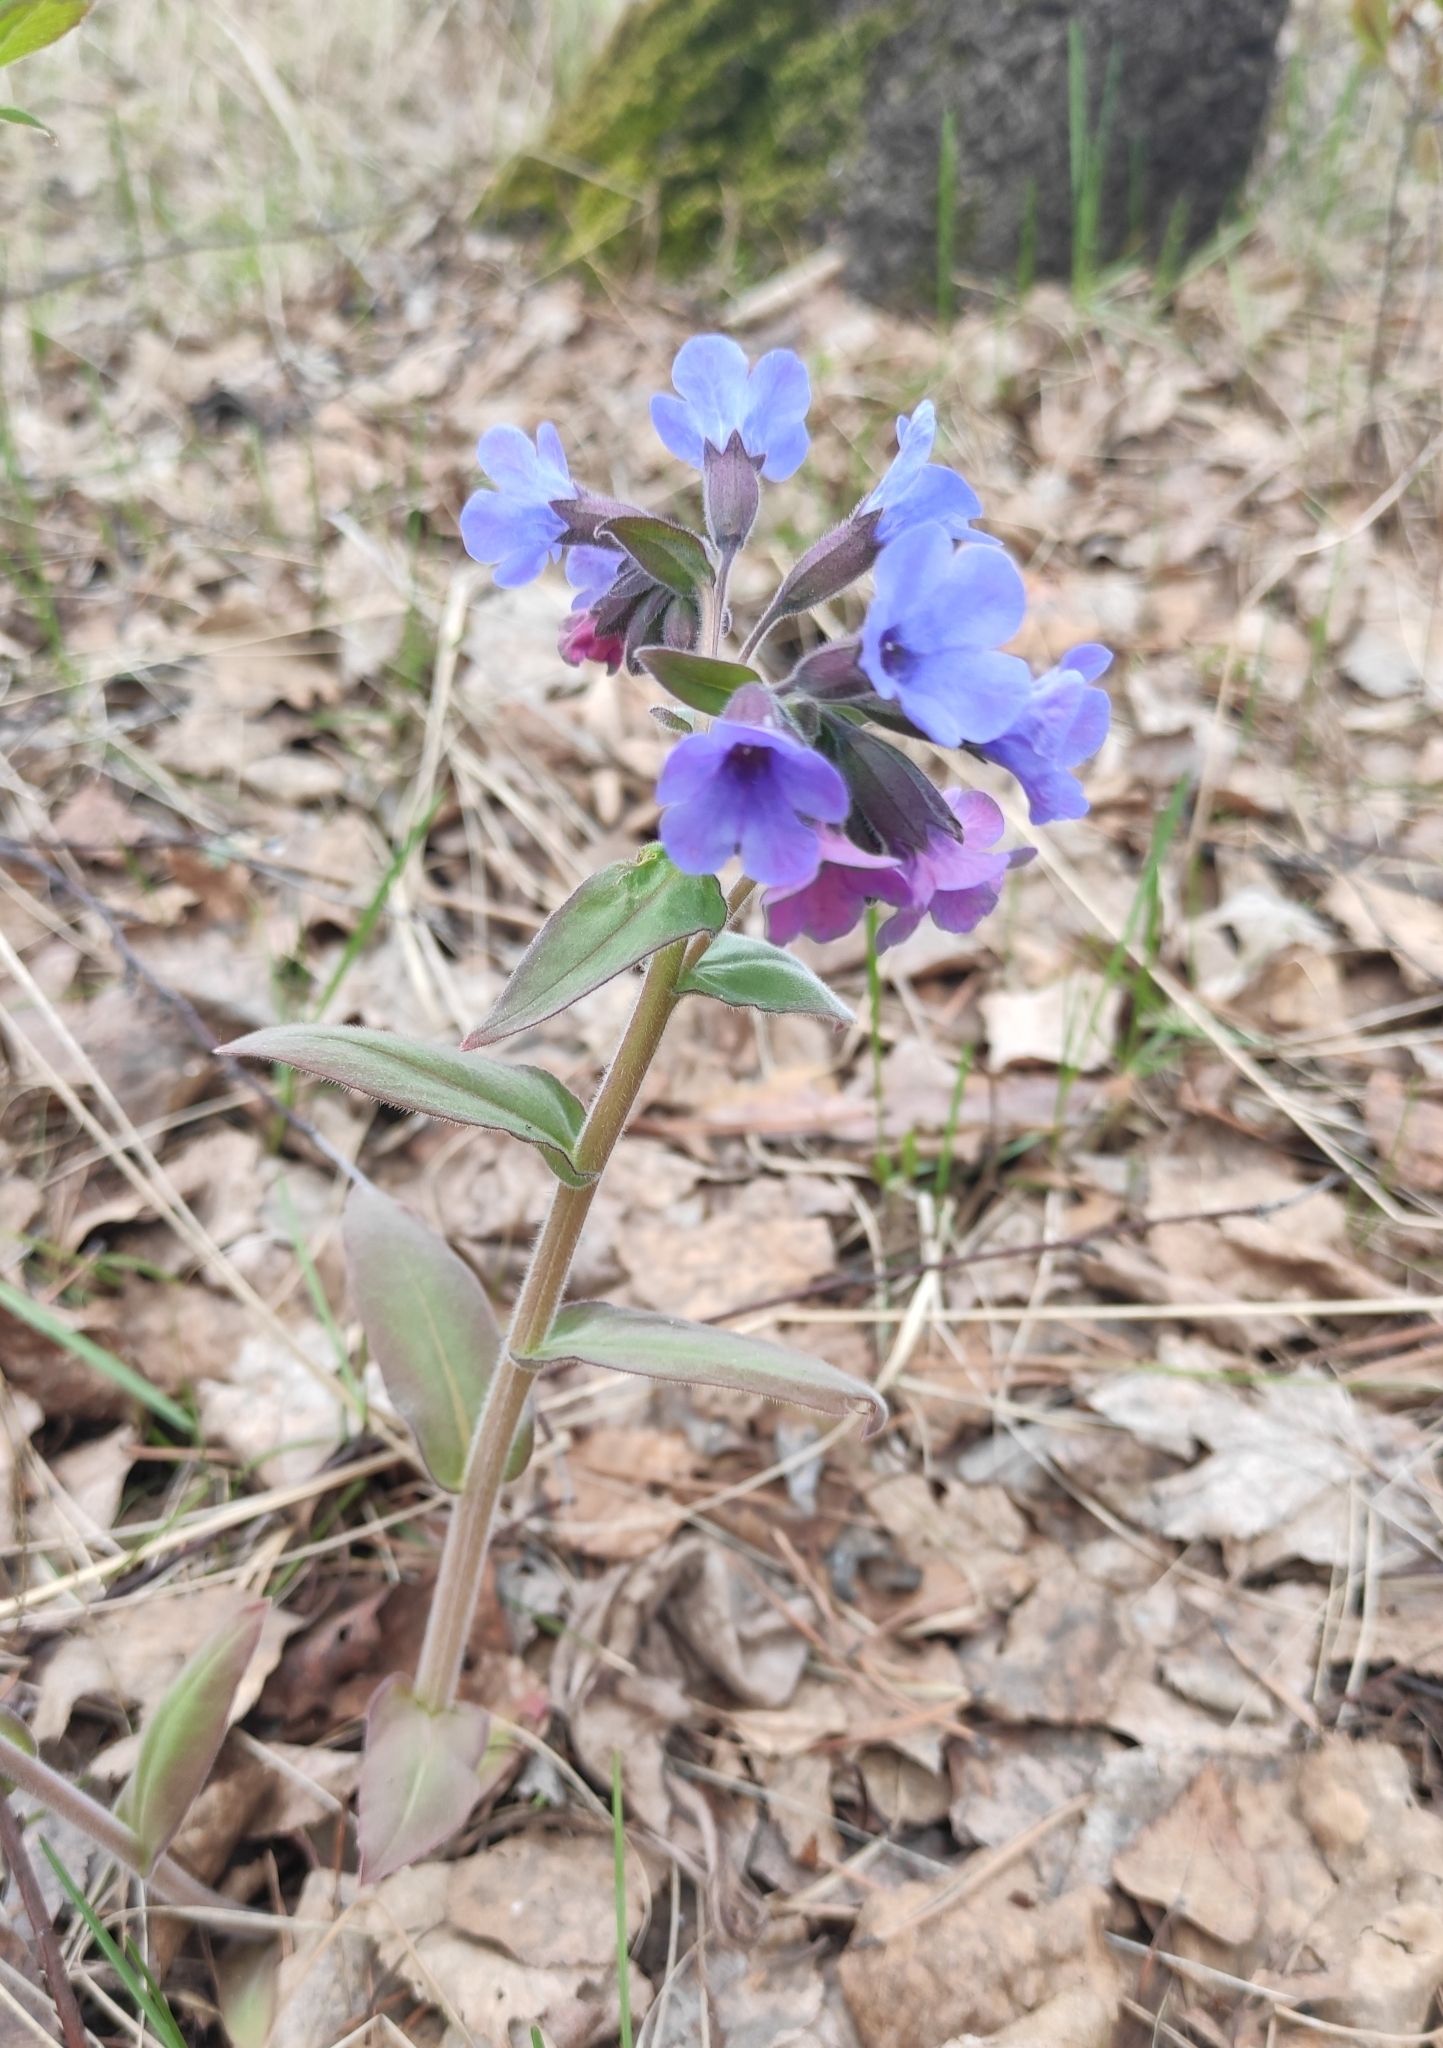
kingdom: Plantae
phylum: Tracheophyta
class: Magnoliopsida
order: Boraginales
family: Boraginaceae
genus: Pulmonaria
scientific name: Pulmonaria mollis
